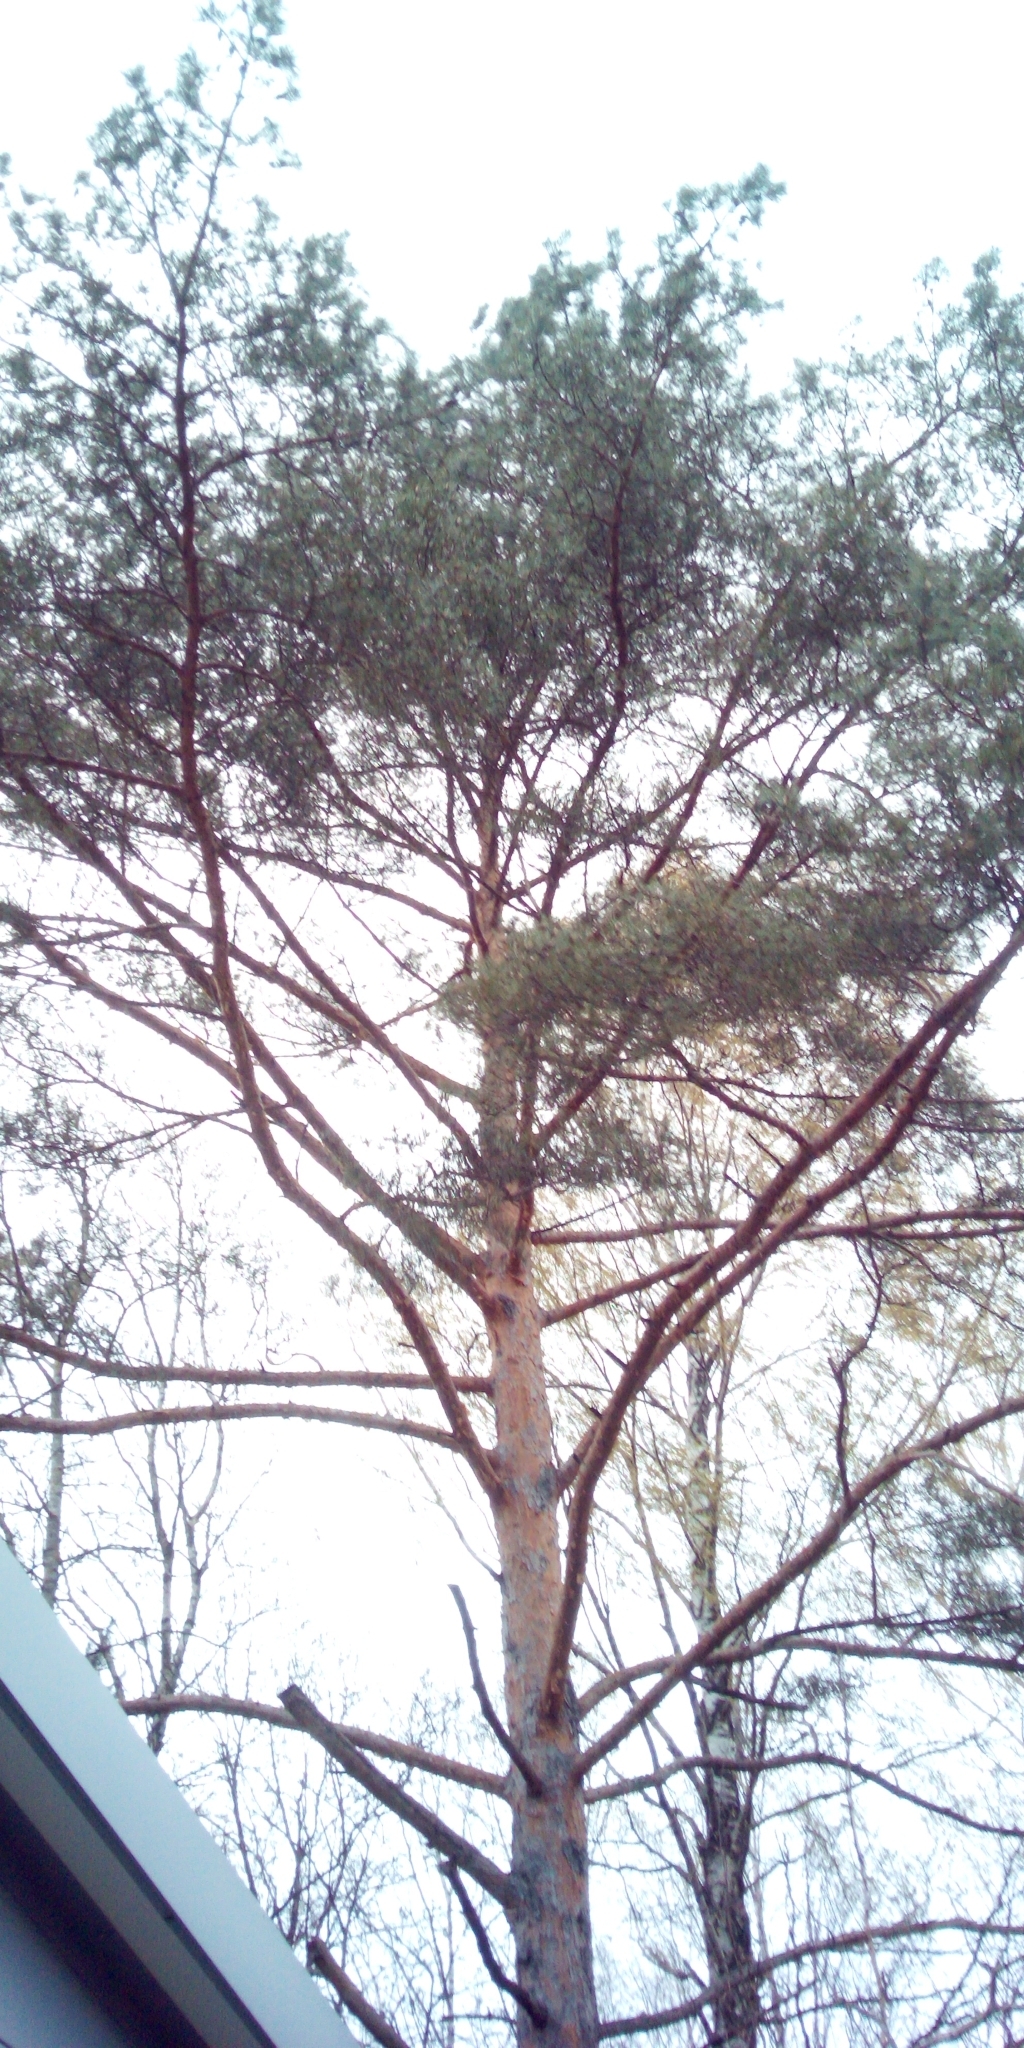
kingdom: Plantae
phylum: Tracheophyta
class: Pinopsida
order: Pinales
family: Pinaceae
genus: Pinus
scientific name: Pinus sylvestris
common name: Scots pine
